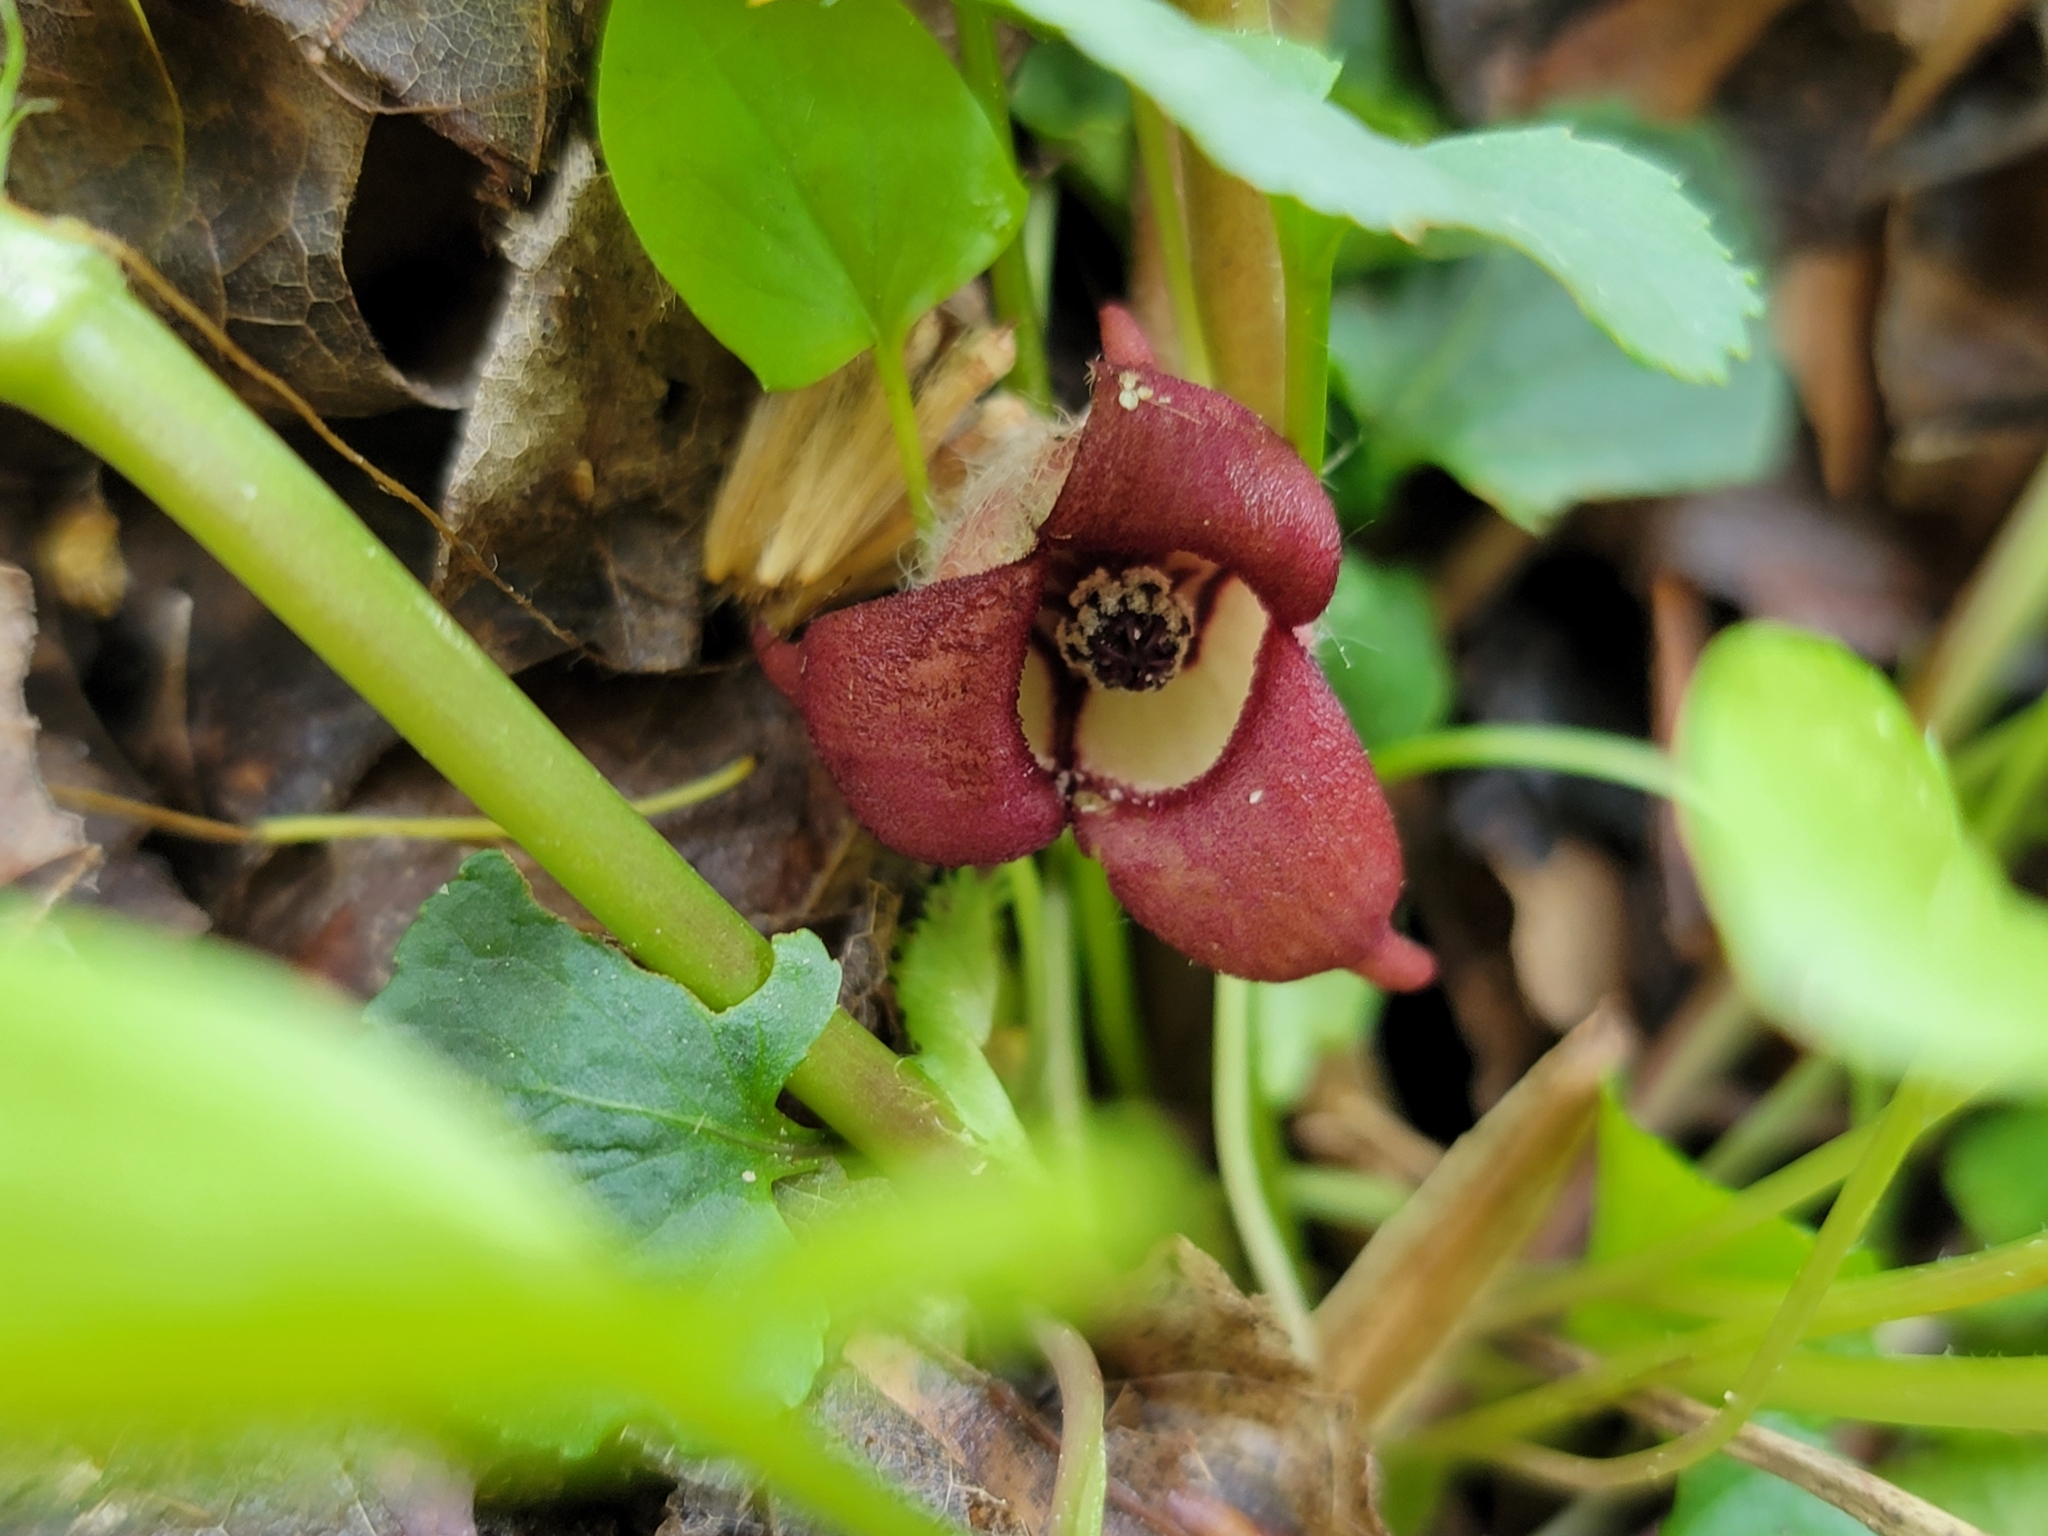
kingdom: Plantae
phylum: Tracheophyta
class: Magnoliopsida
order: Piperales
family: Aristolochiaceae
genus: Asarum
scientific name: Asarum canadense
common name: Wild ginger
